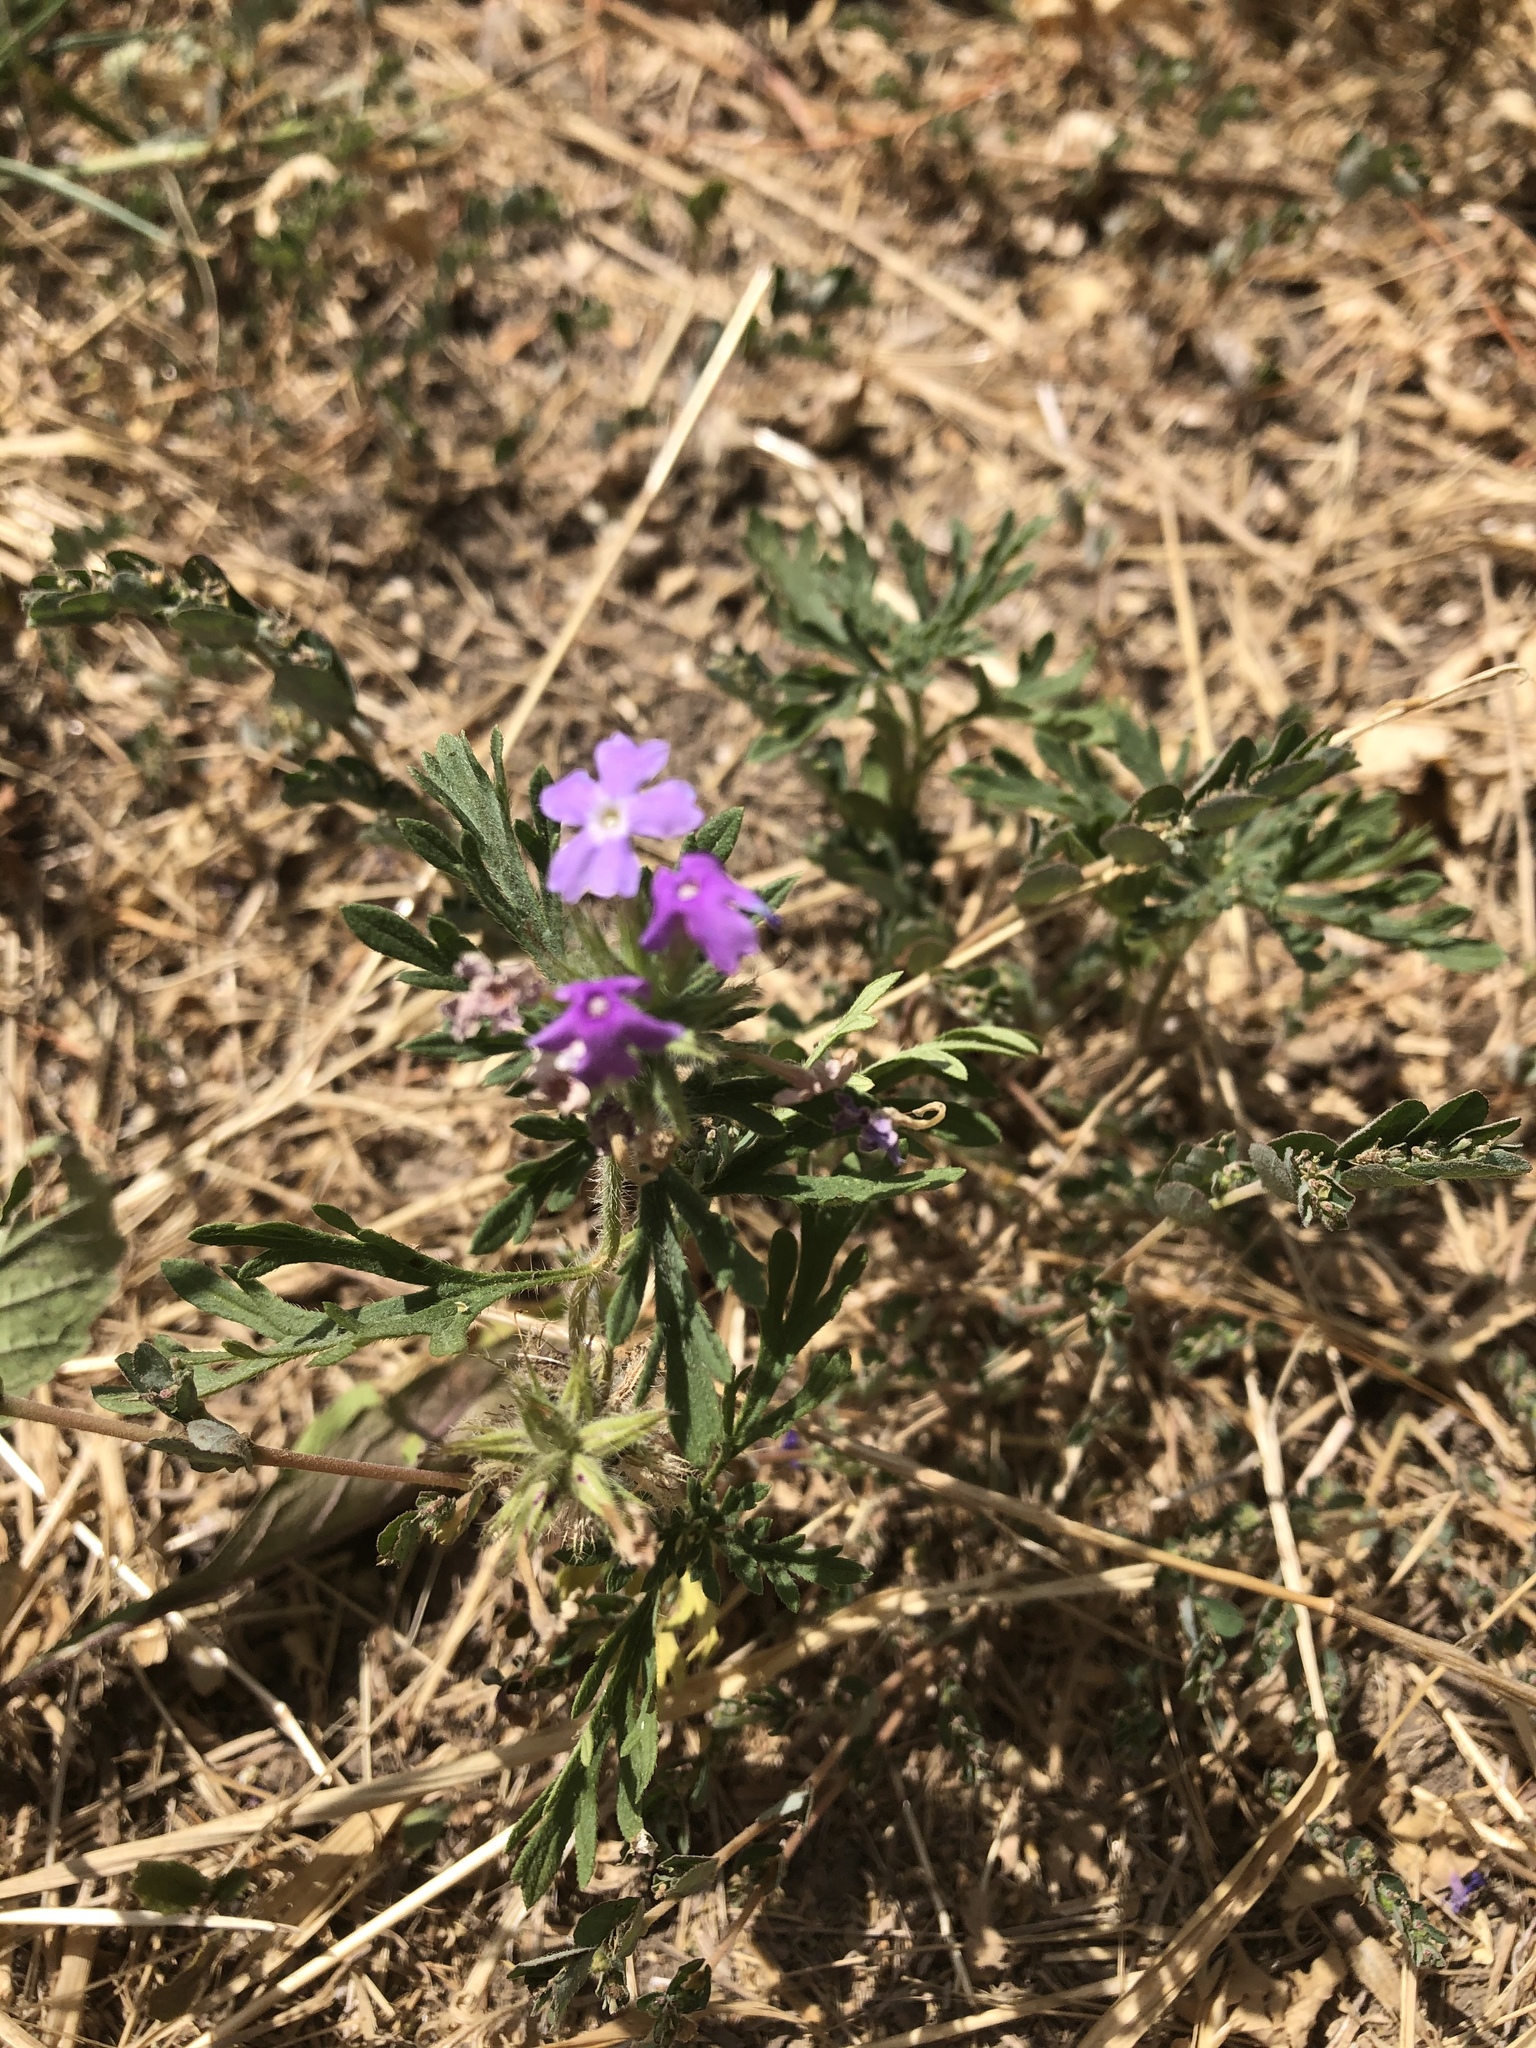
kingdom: Plantae
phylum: Tracheophyta
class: Magnoliopsida
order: Lamiales
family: Verbenaceae
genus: Verbena
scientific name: Verbena bipinnatifida
